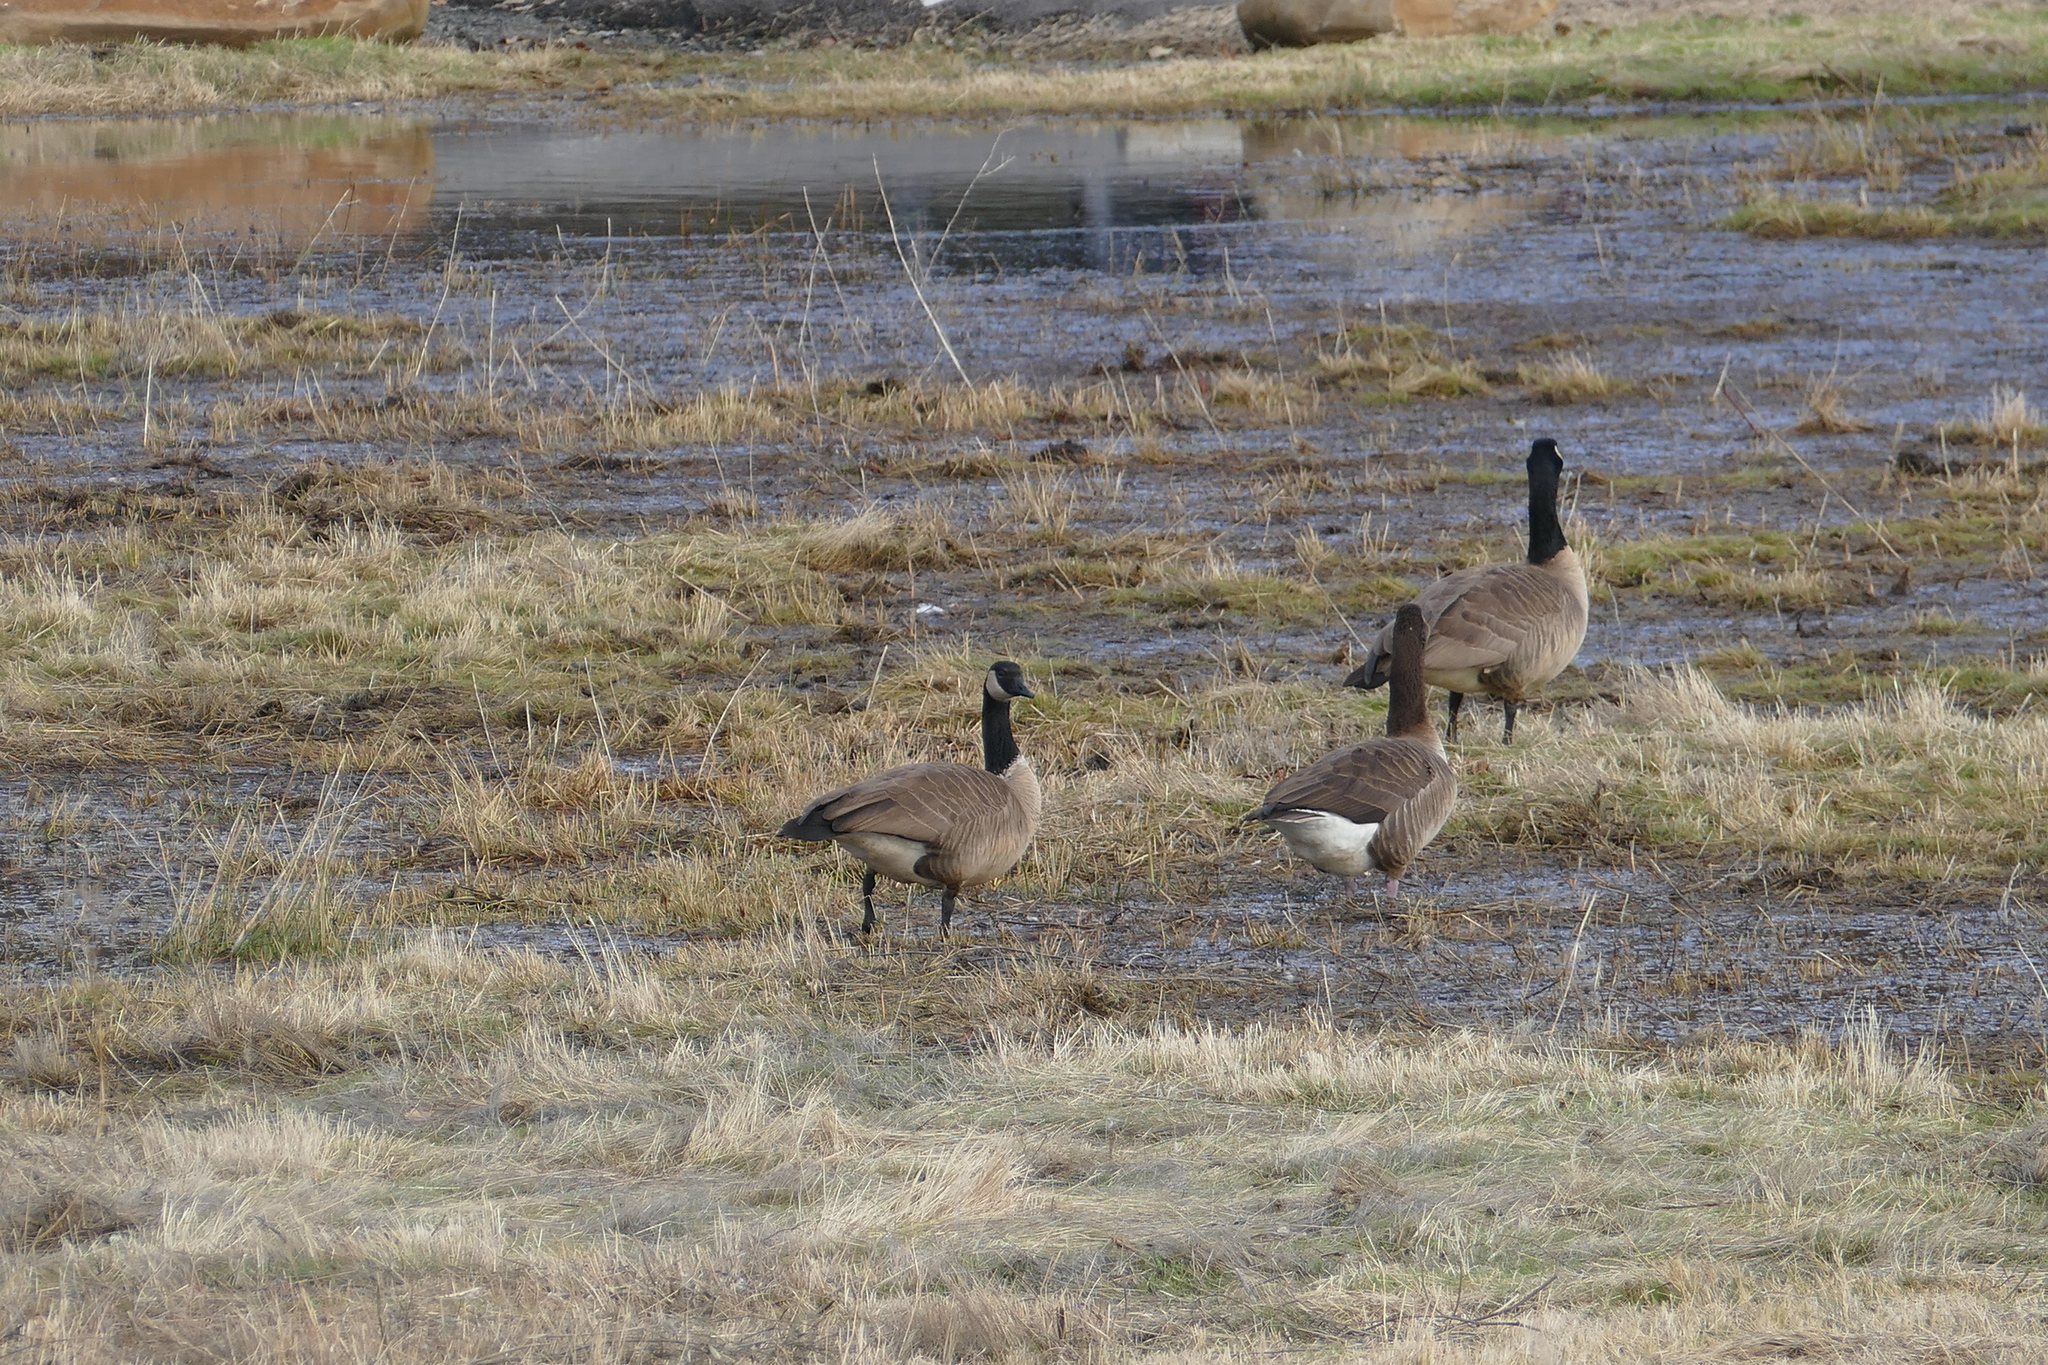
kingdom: Animalia
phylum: Chordata
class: Aves
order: Anseriformes
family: Anatidae
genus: Branta
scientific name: Branta canadensis
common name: Canada goose
